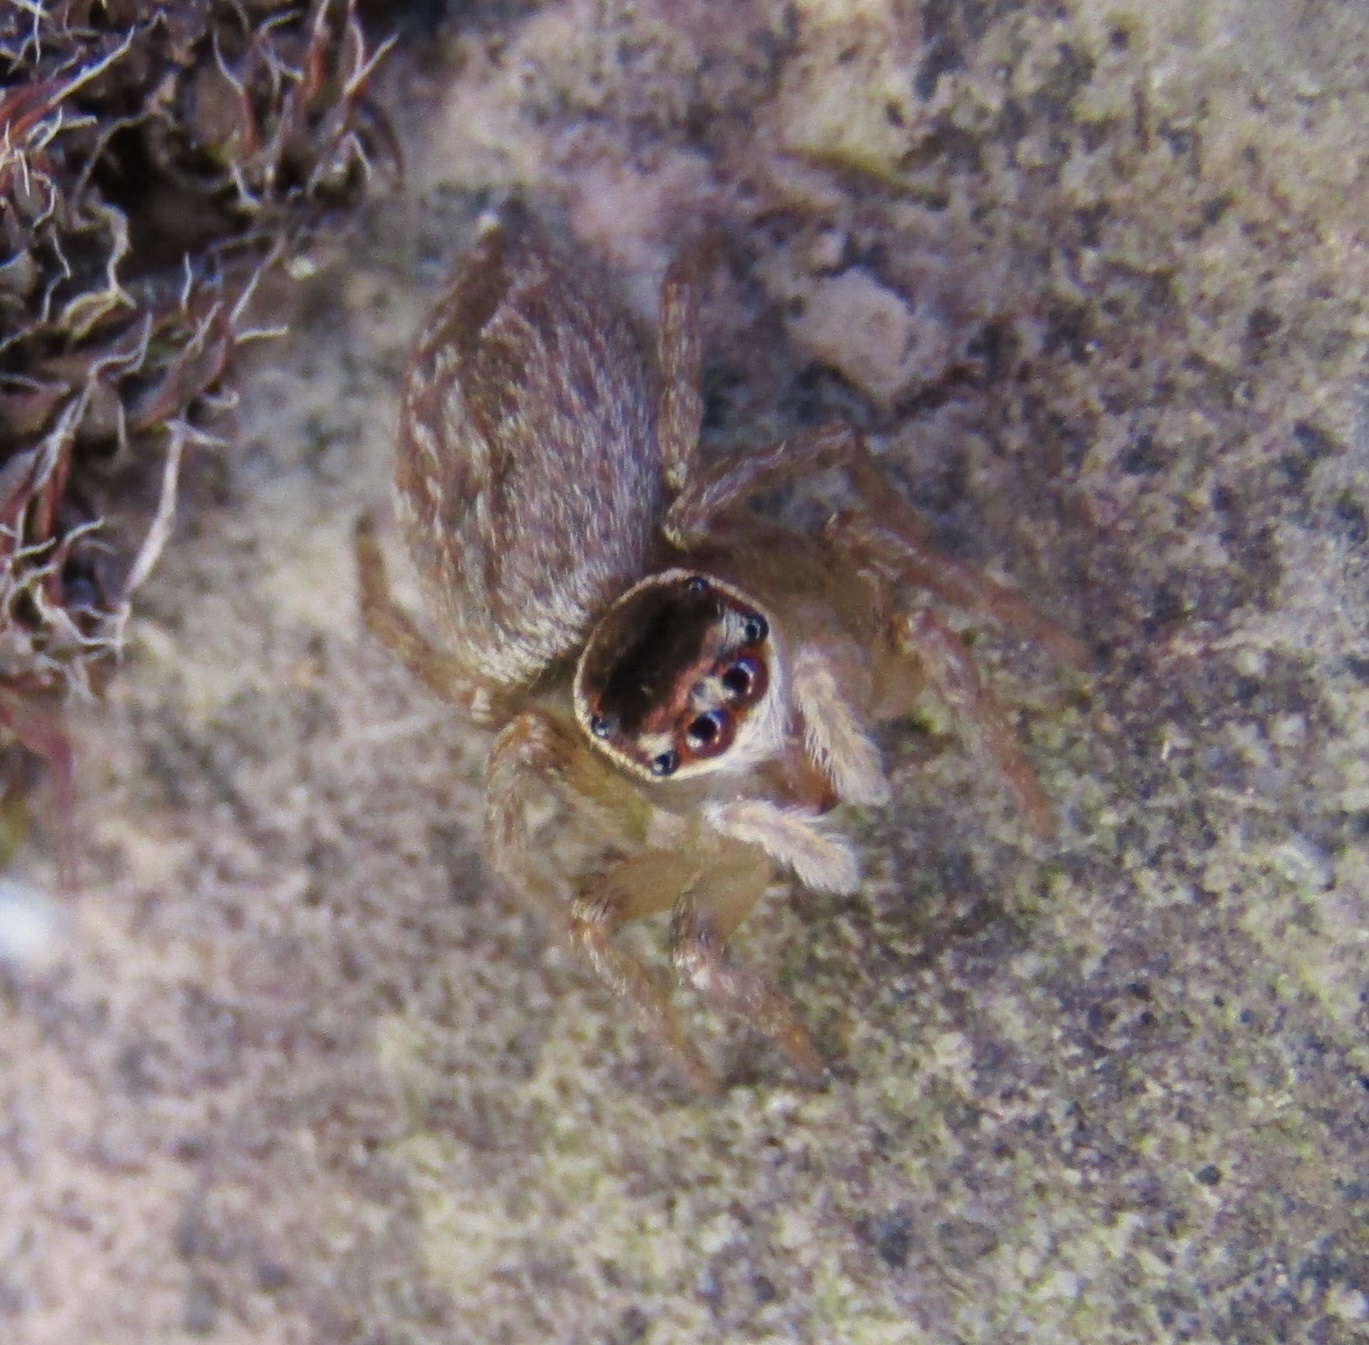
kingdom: Animalia
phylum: Arthropoda
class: Arachnida
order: Araneae
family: Salticidae
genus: Maratus
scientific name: Maratus griseus
